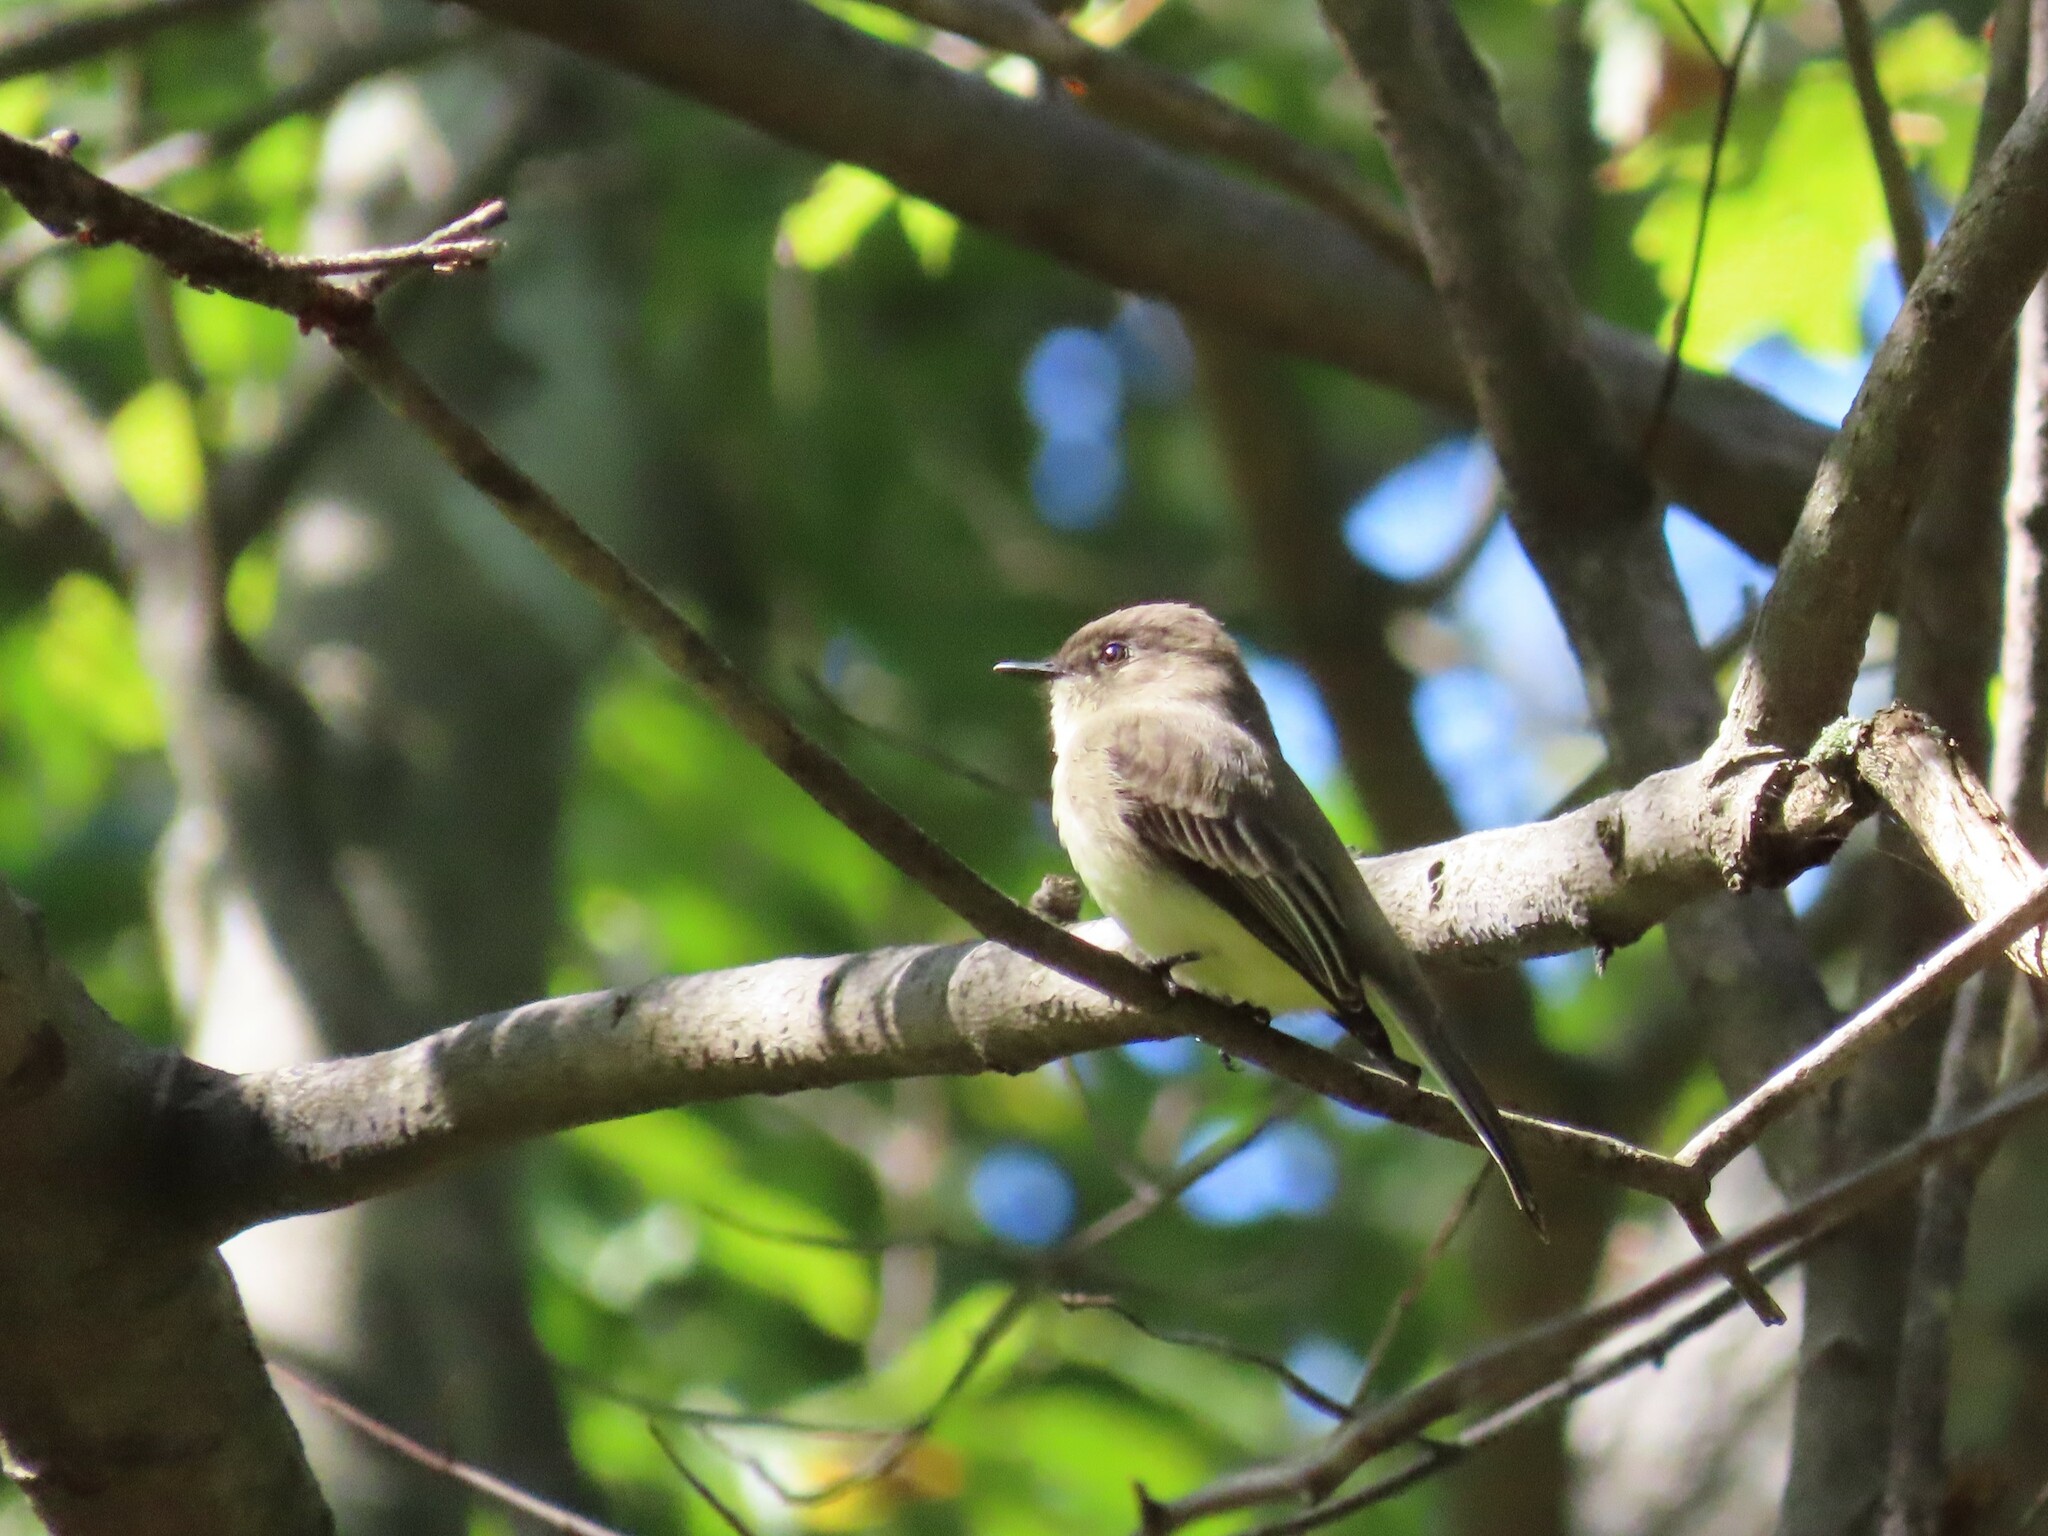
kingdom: Animalia
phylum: Chordata
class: Aves
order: Passeriformes
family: Tyrannidae
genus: Sayornis
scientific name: Sayornis phoebe
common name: Eastern phoebe
